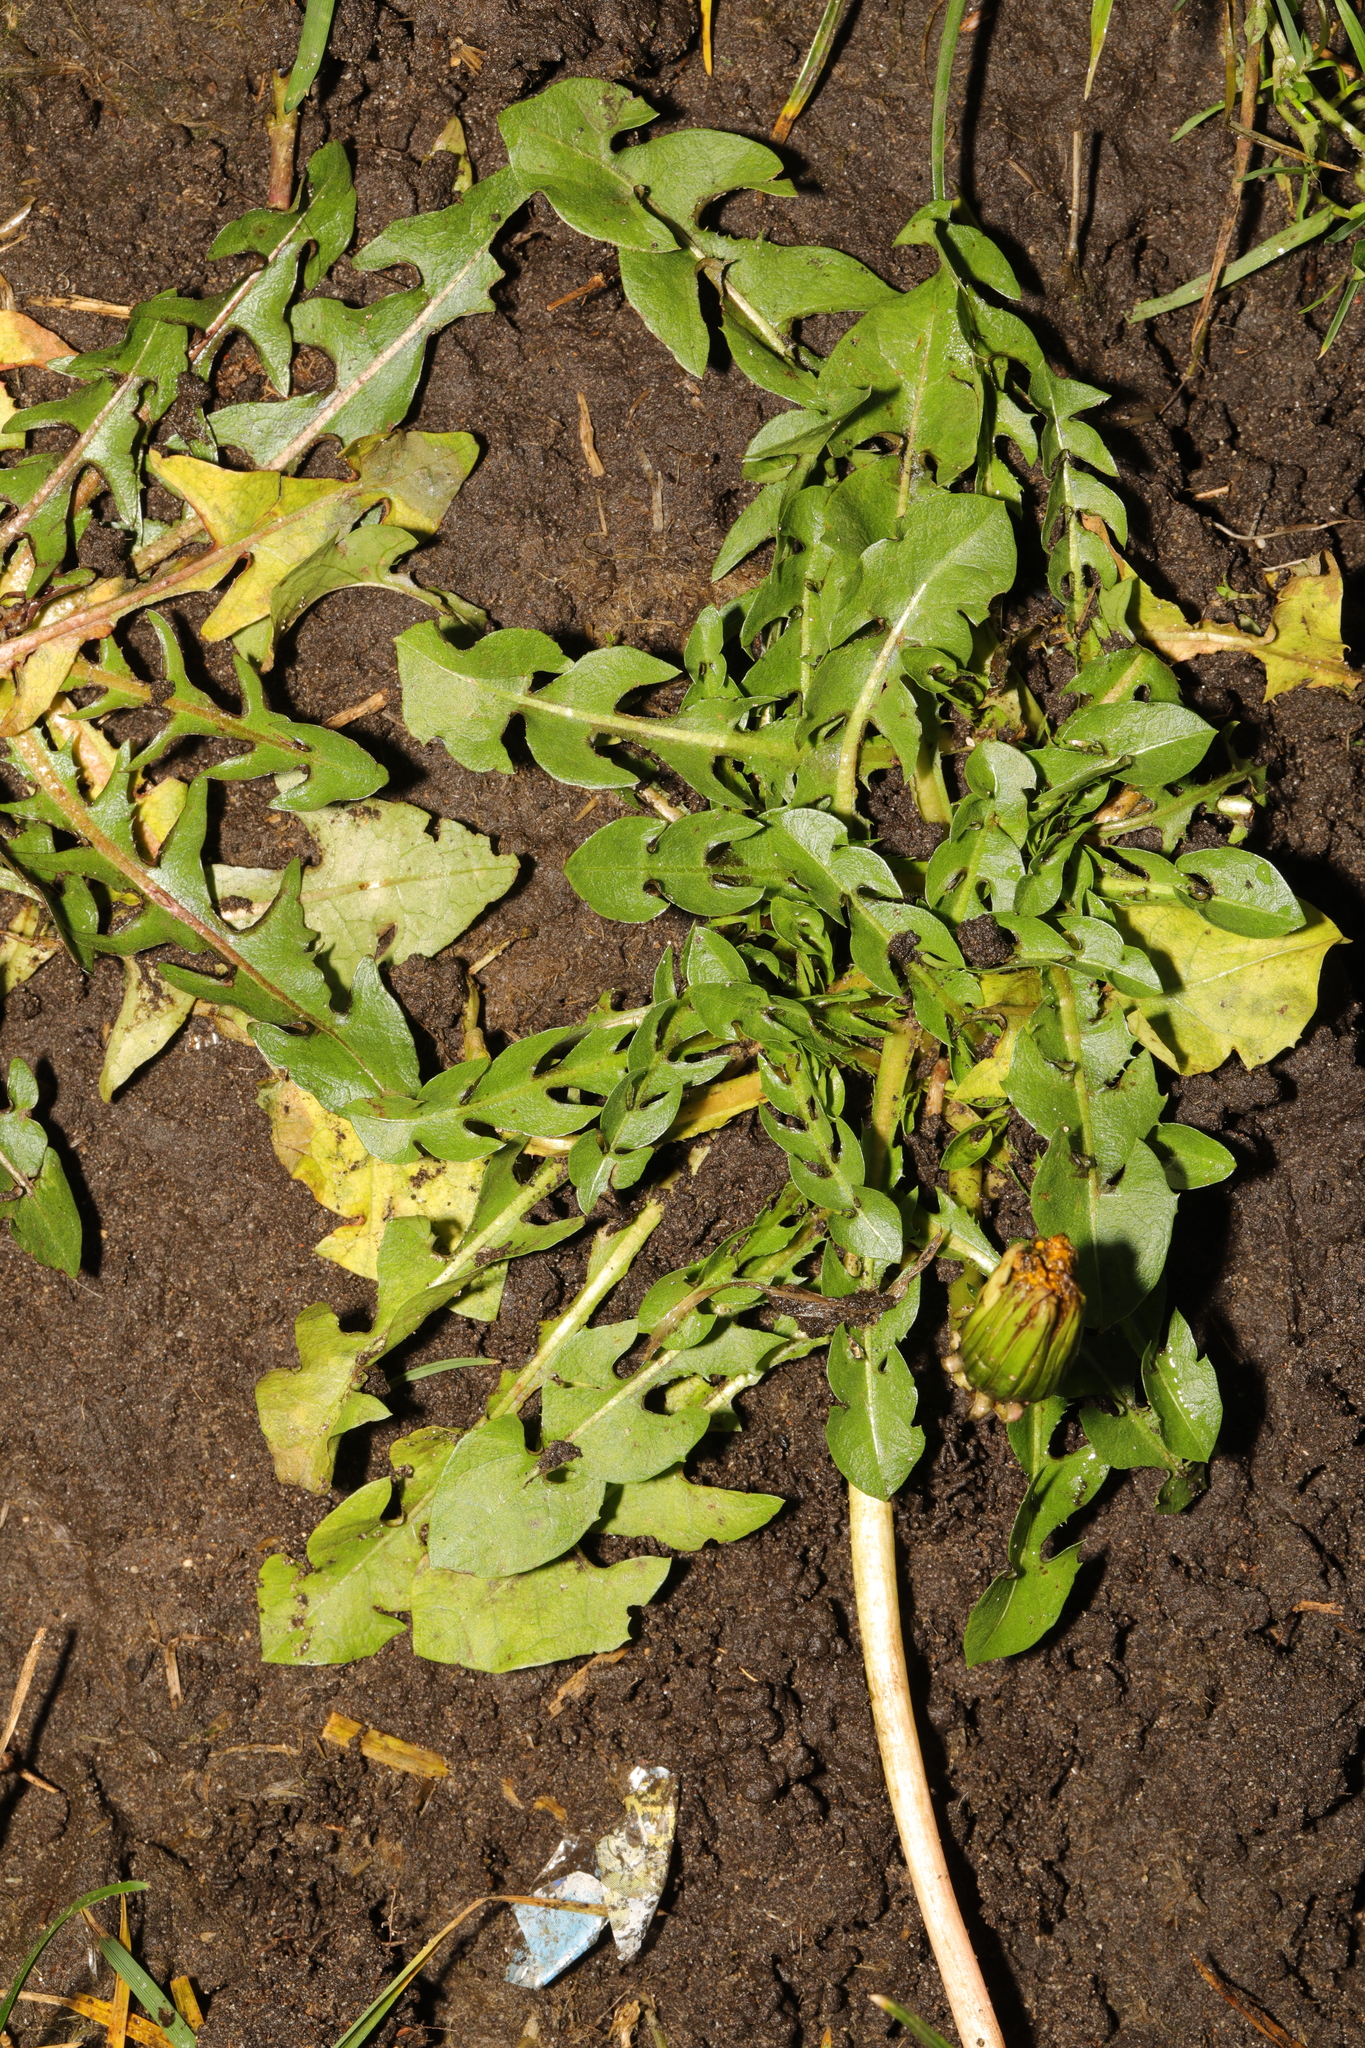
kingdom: Plantae
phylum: Tracheophyta
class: Magnoliopsida
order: Asterales
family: Asteraceae
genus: Taraxacum
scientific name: Taraxacum officinale
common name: Common dandelion
